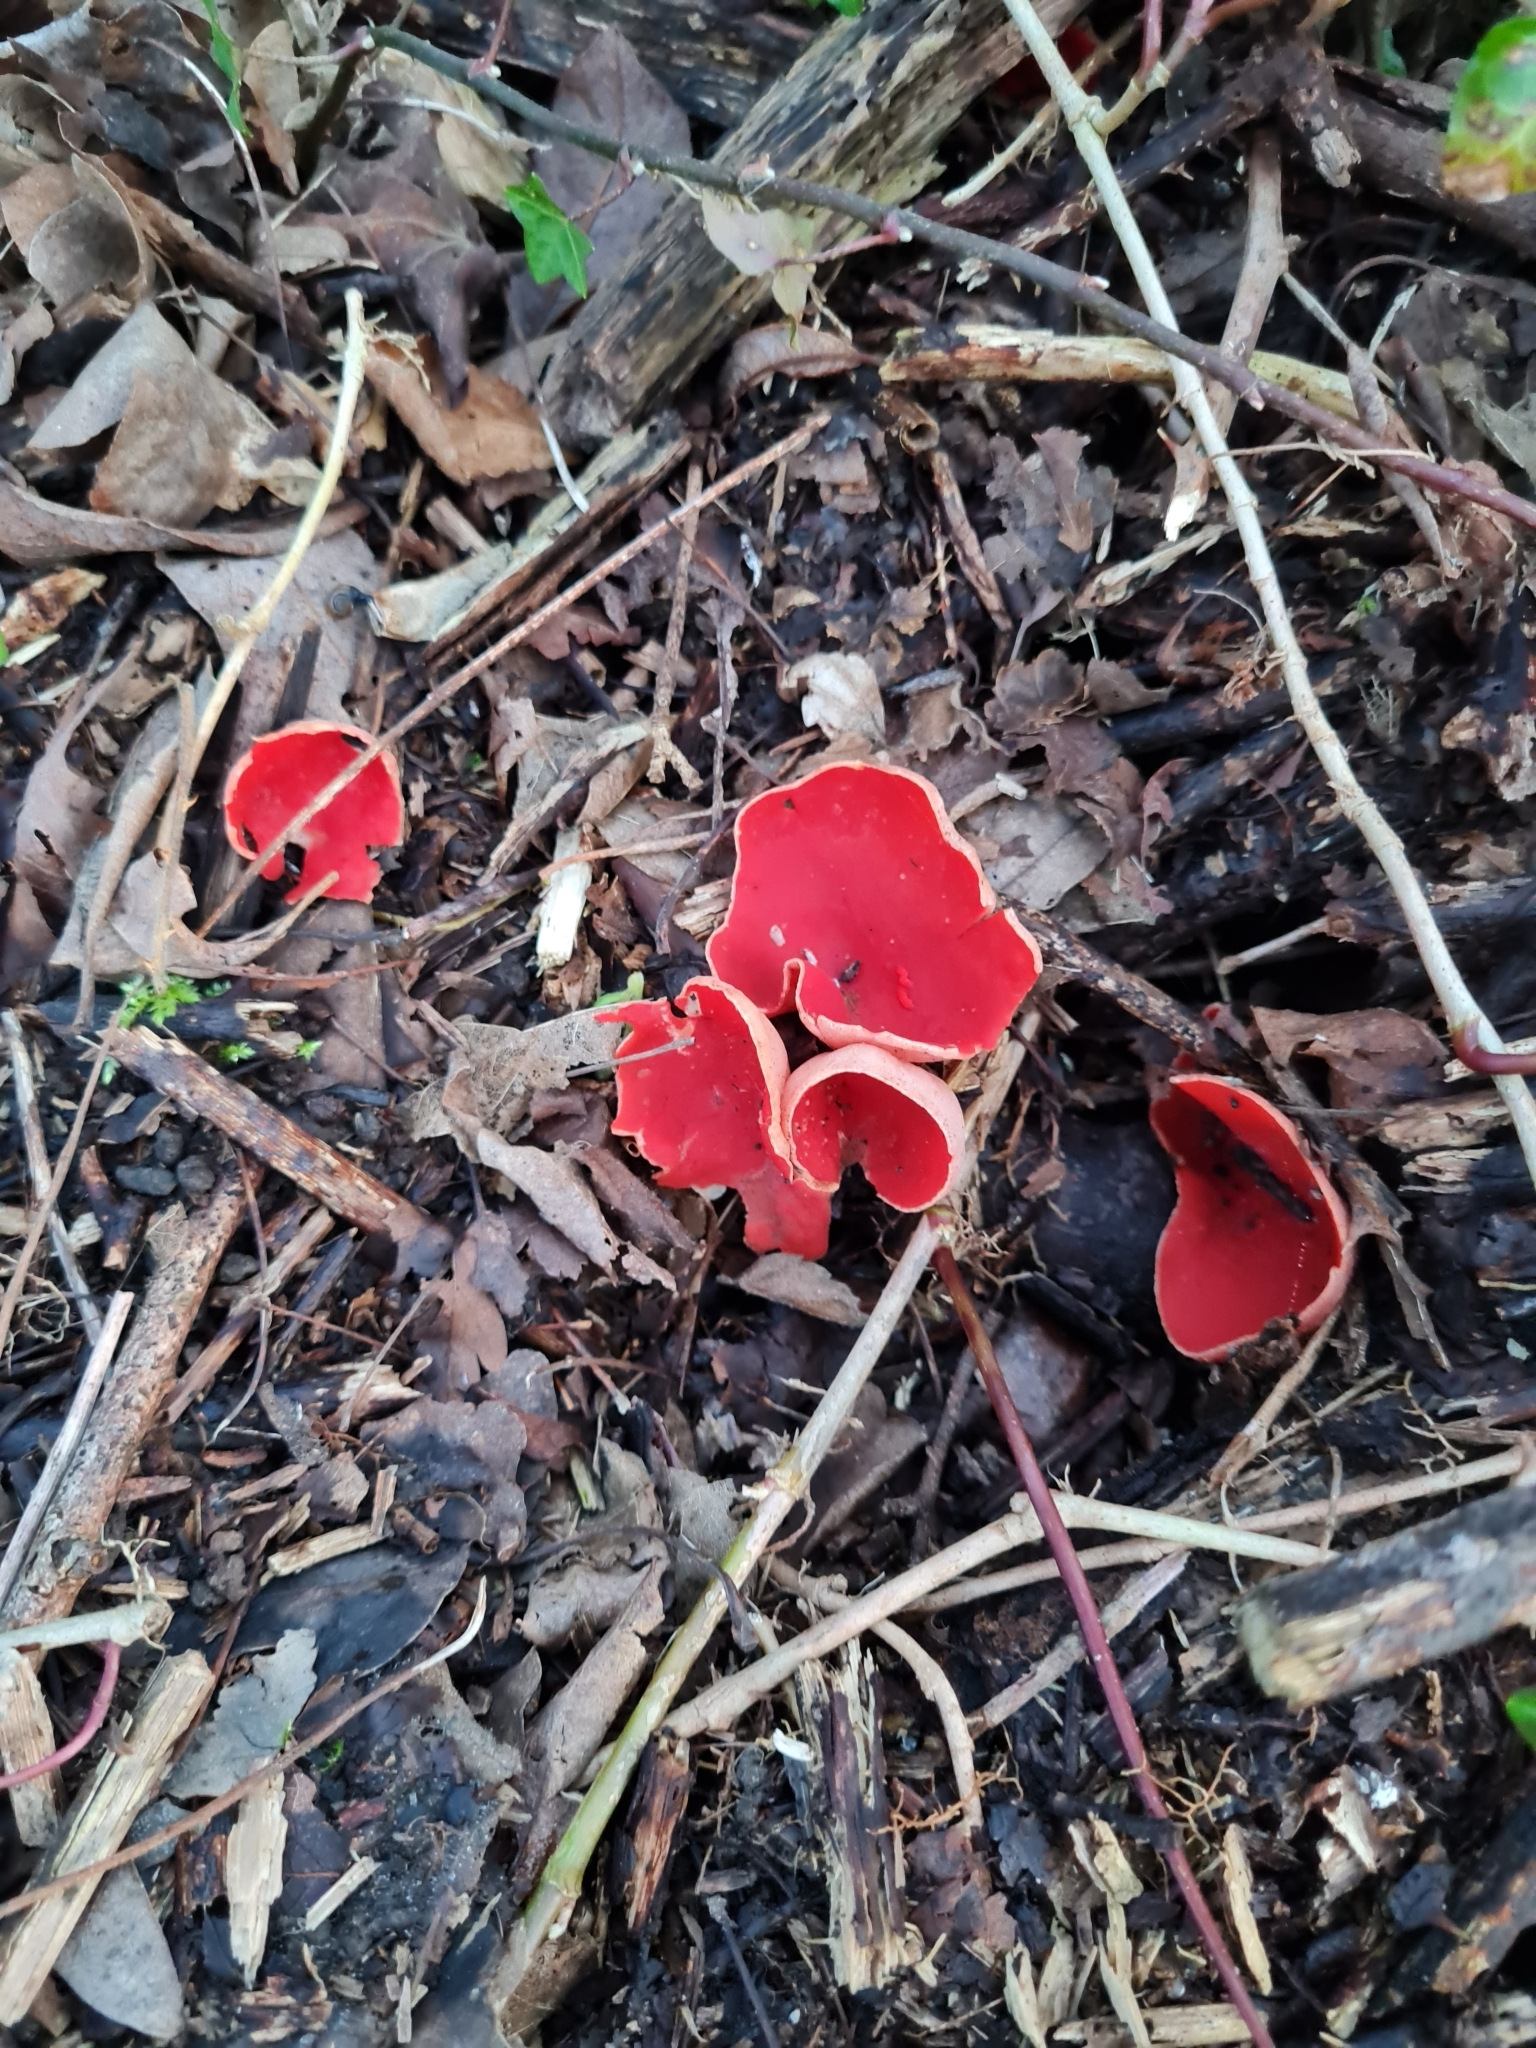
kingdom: Fungi
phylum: Ascomycota
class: Pezizomycetes
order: Pezizales
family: Sarcoscyphaceae
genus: Sarcoscypha
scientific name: Sarcoscypha
